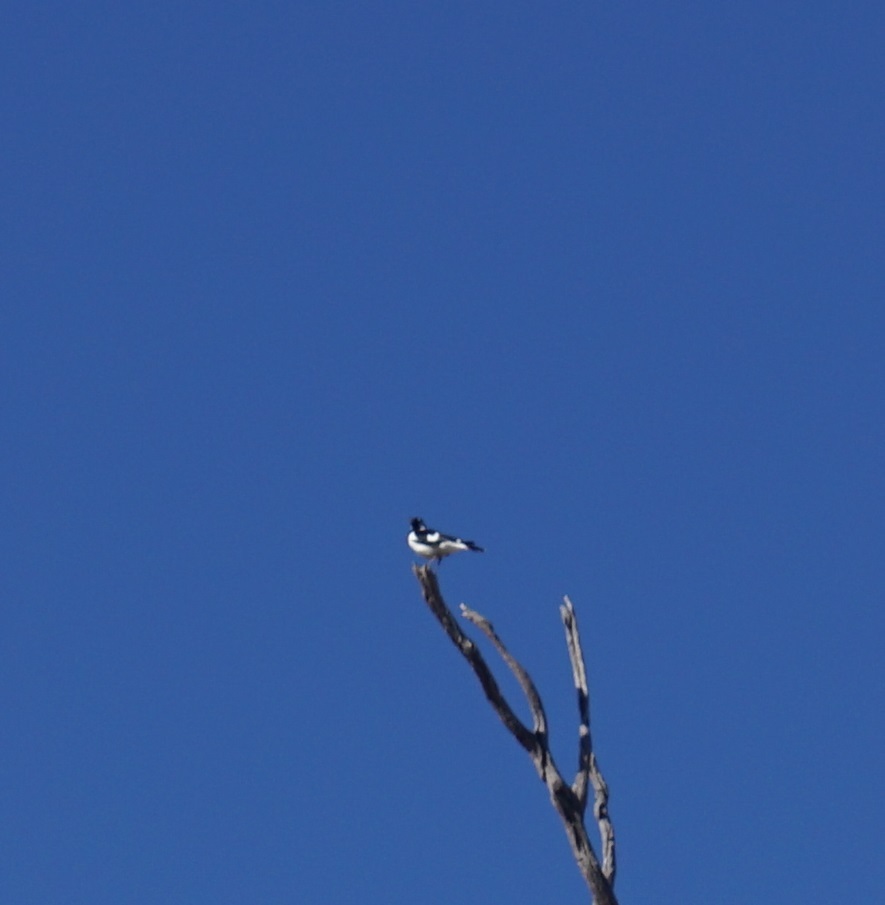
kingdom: Animalia
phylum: Chordata
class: Aves
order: Passeriformes
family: Monarchidae
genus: Grallina
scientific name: Grallina cyanoleuca
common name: Magpie-lark
